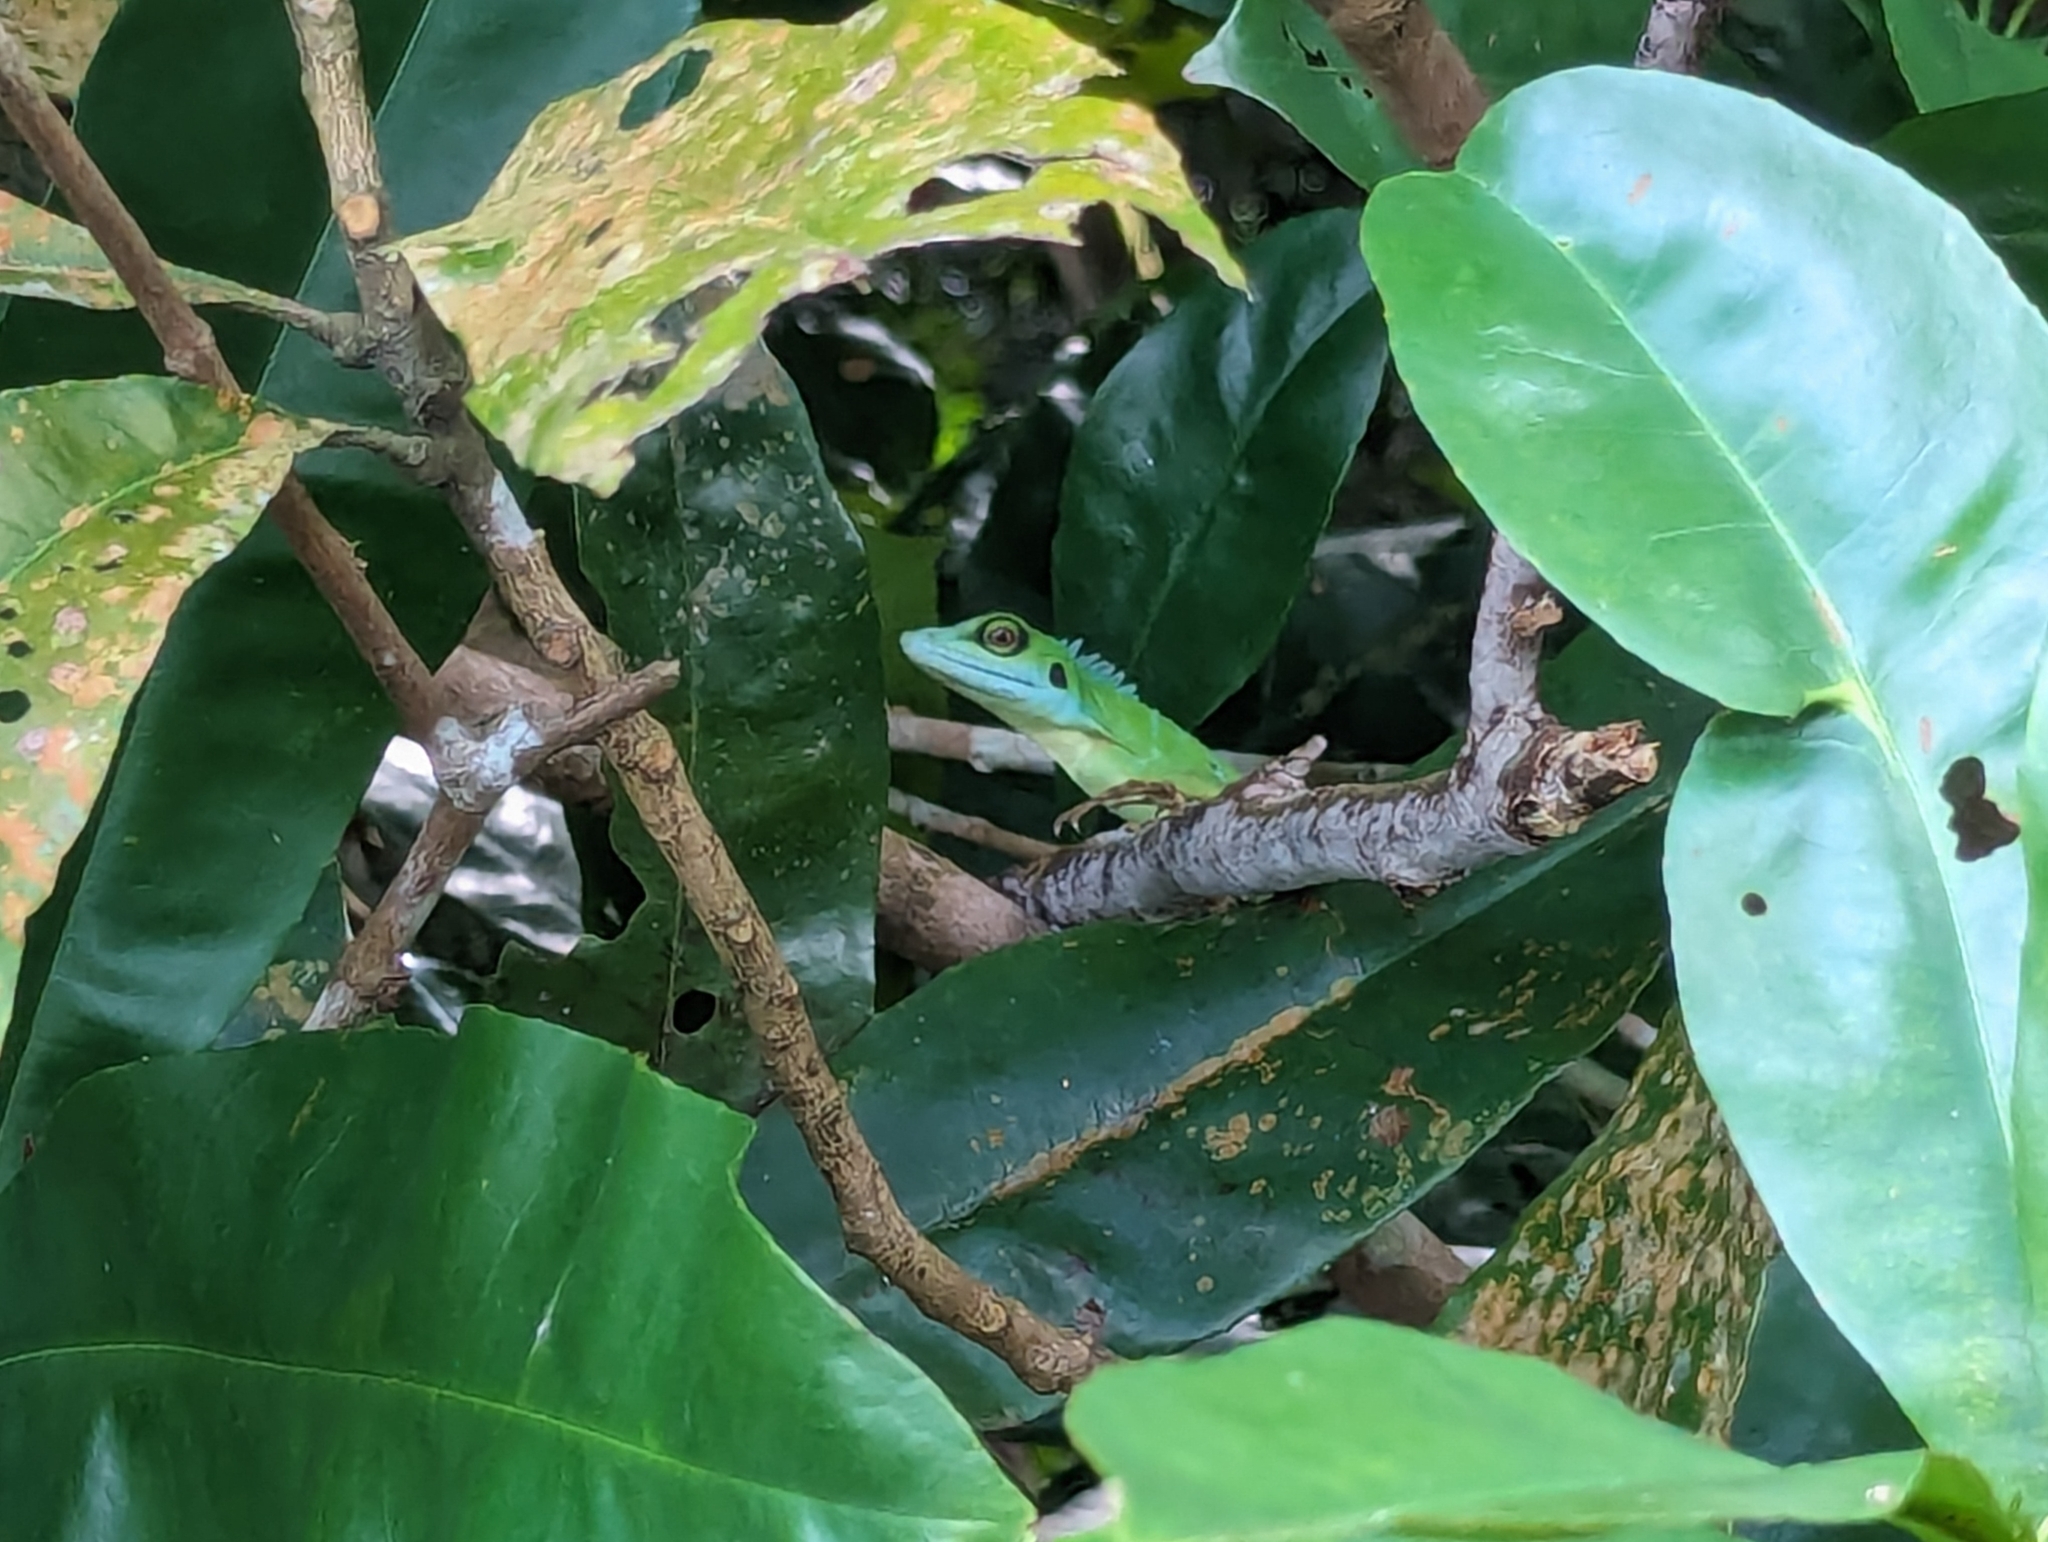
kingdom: Animalia
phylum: Chordata
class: Squamata
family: Agamidae
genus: Bronchocela
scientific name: Bronchocela cristatella
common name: Green crested lizard
